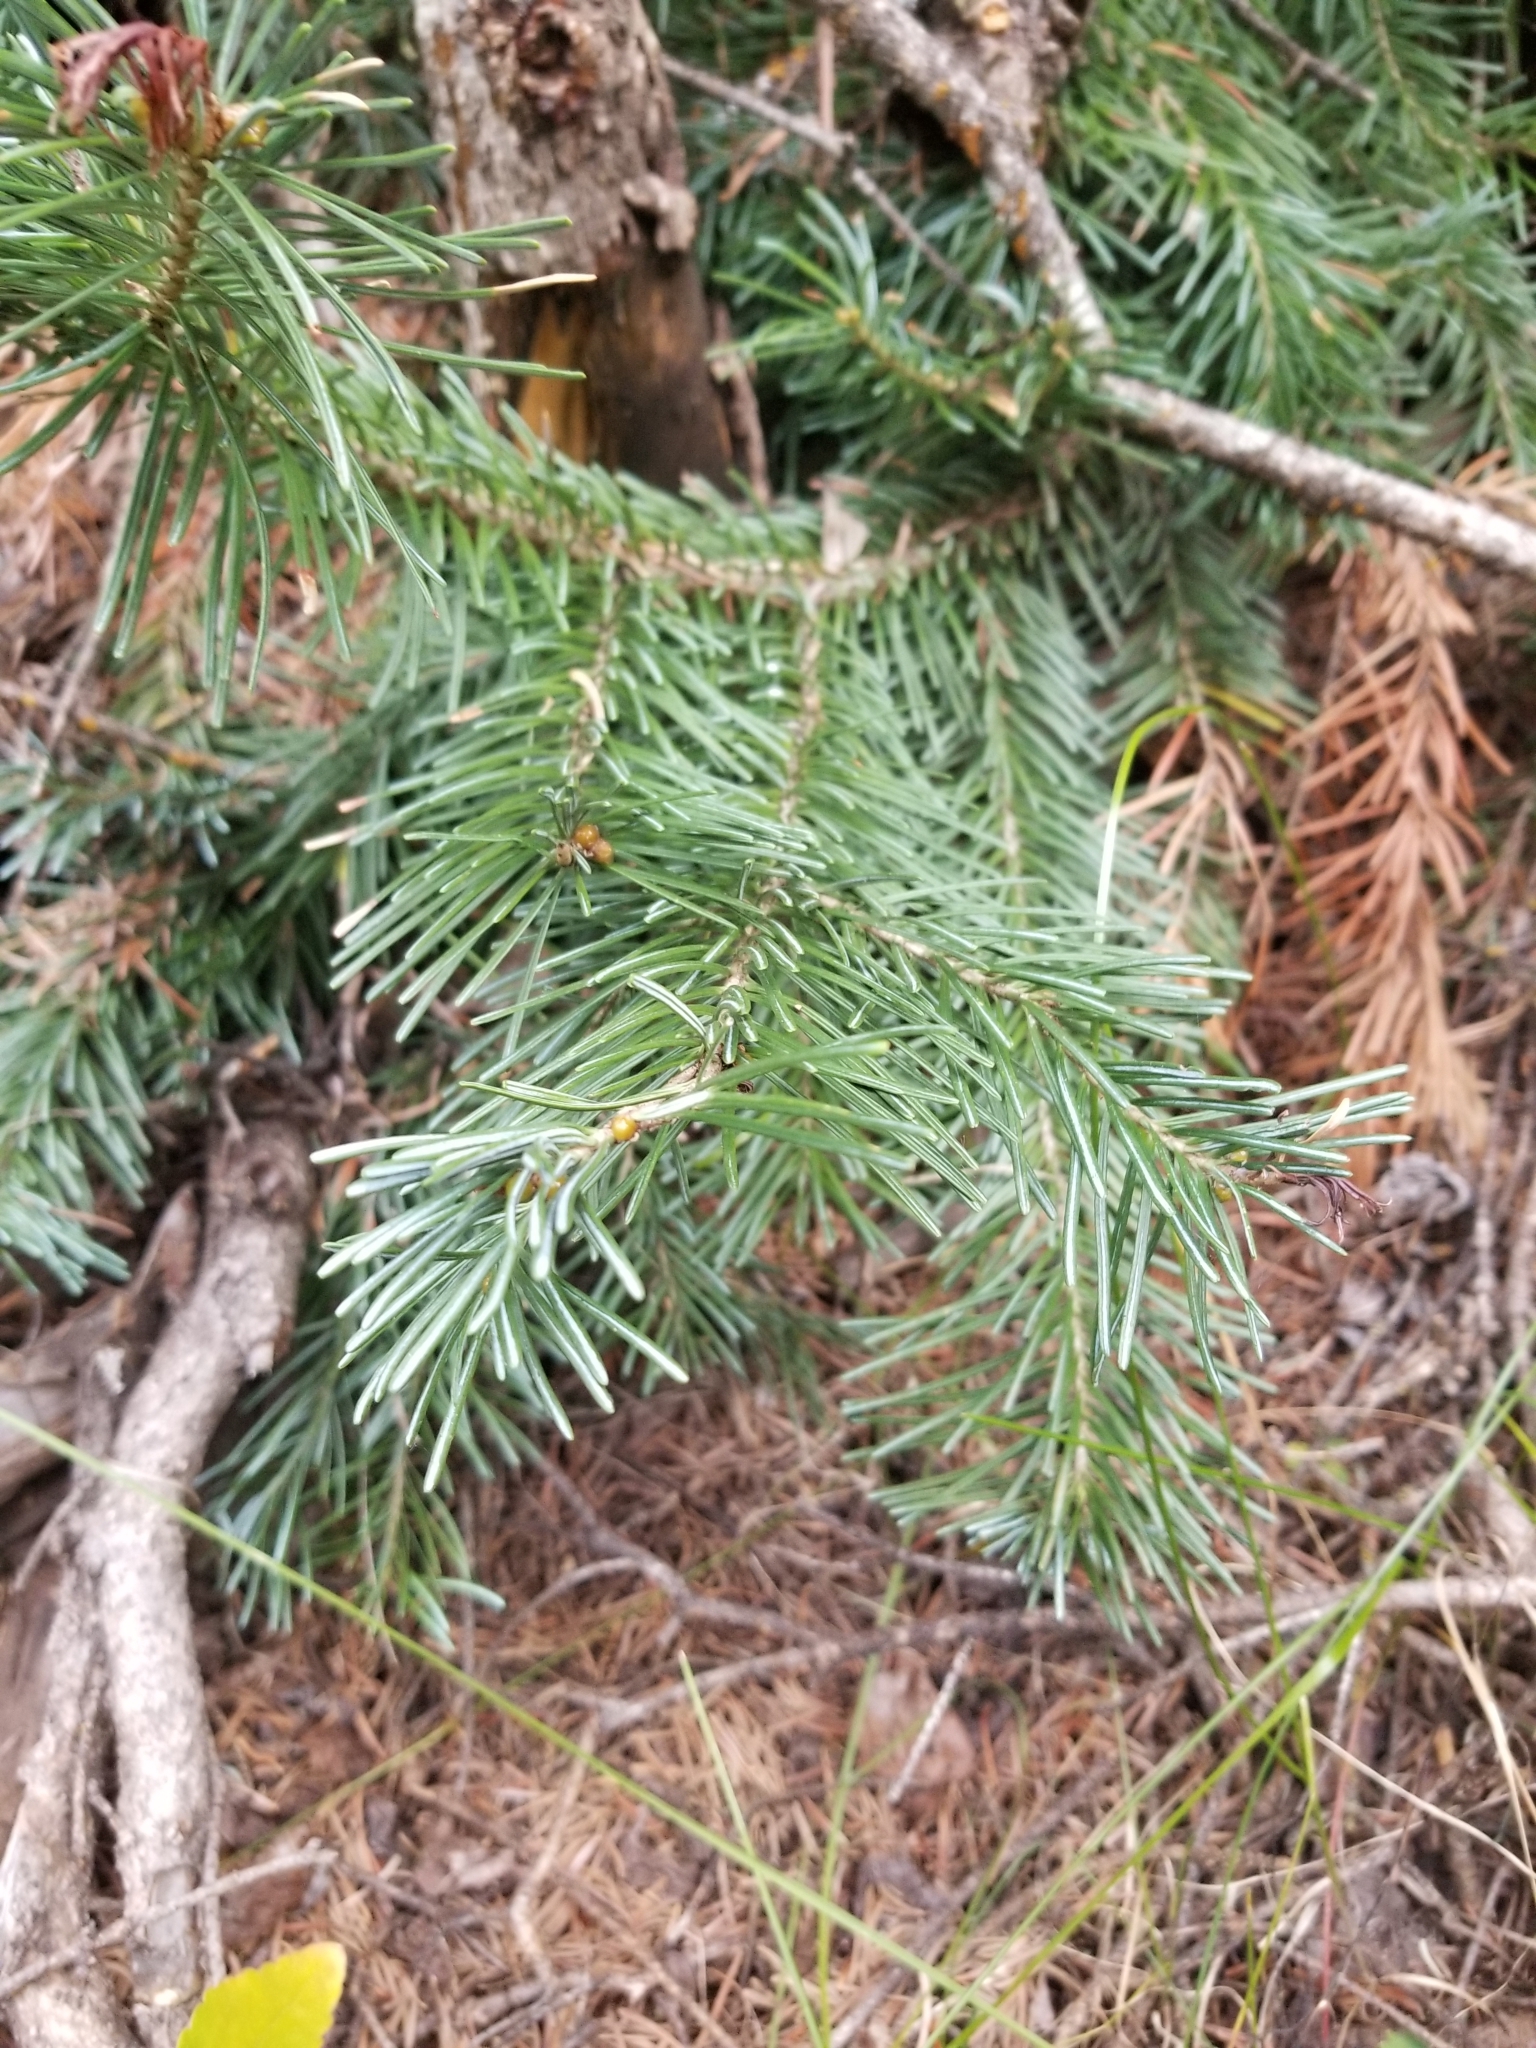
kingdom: Plantae
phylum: Tracheophyta
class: Pinopsida
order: Pinales
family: Pinaceae
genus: Abies
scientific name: Abies lasiocarpa
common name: Subalpine fir
